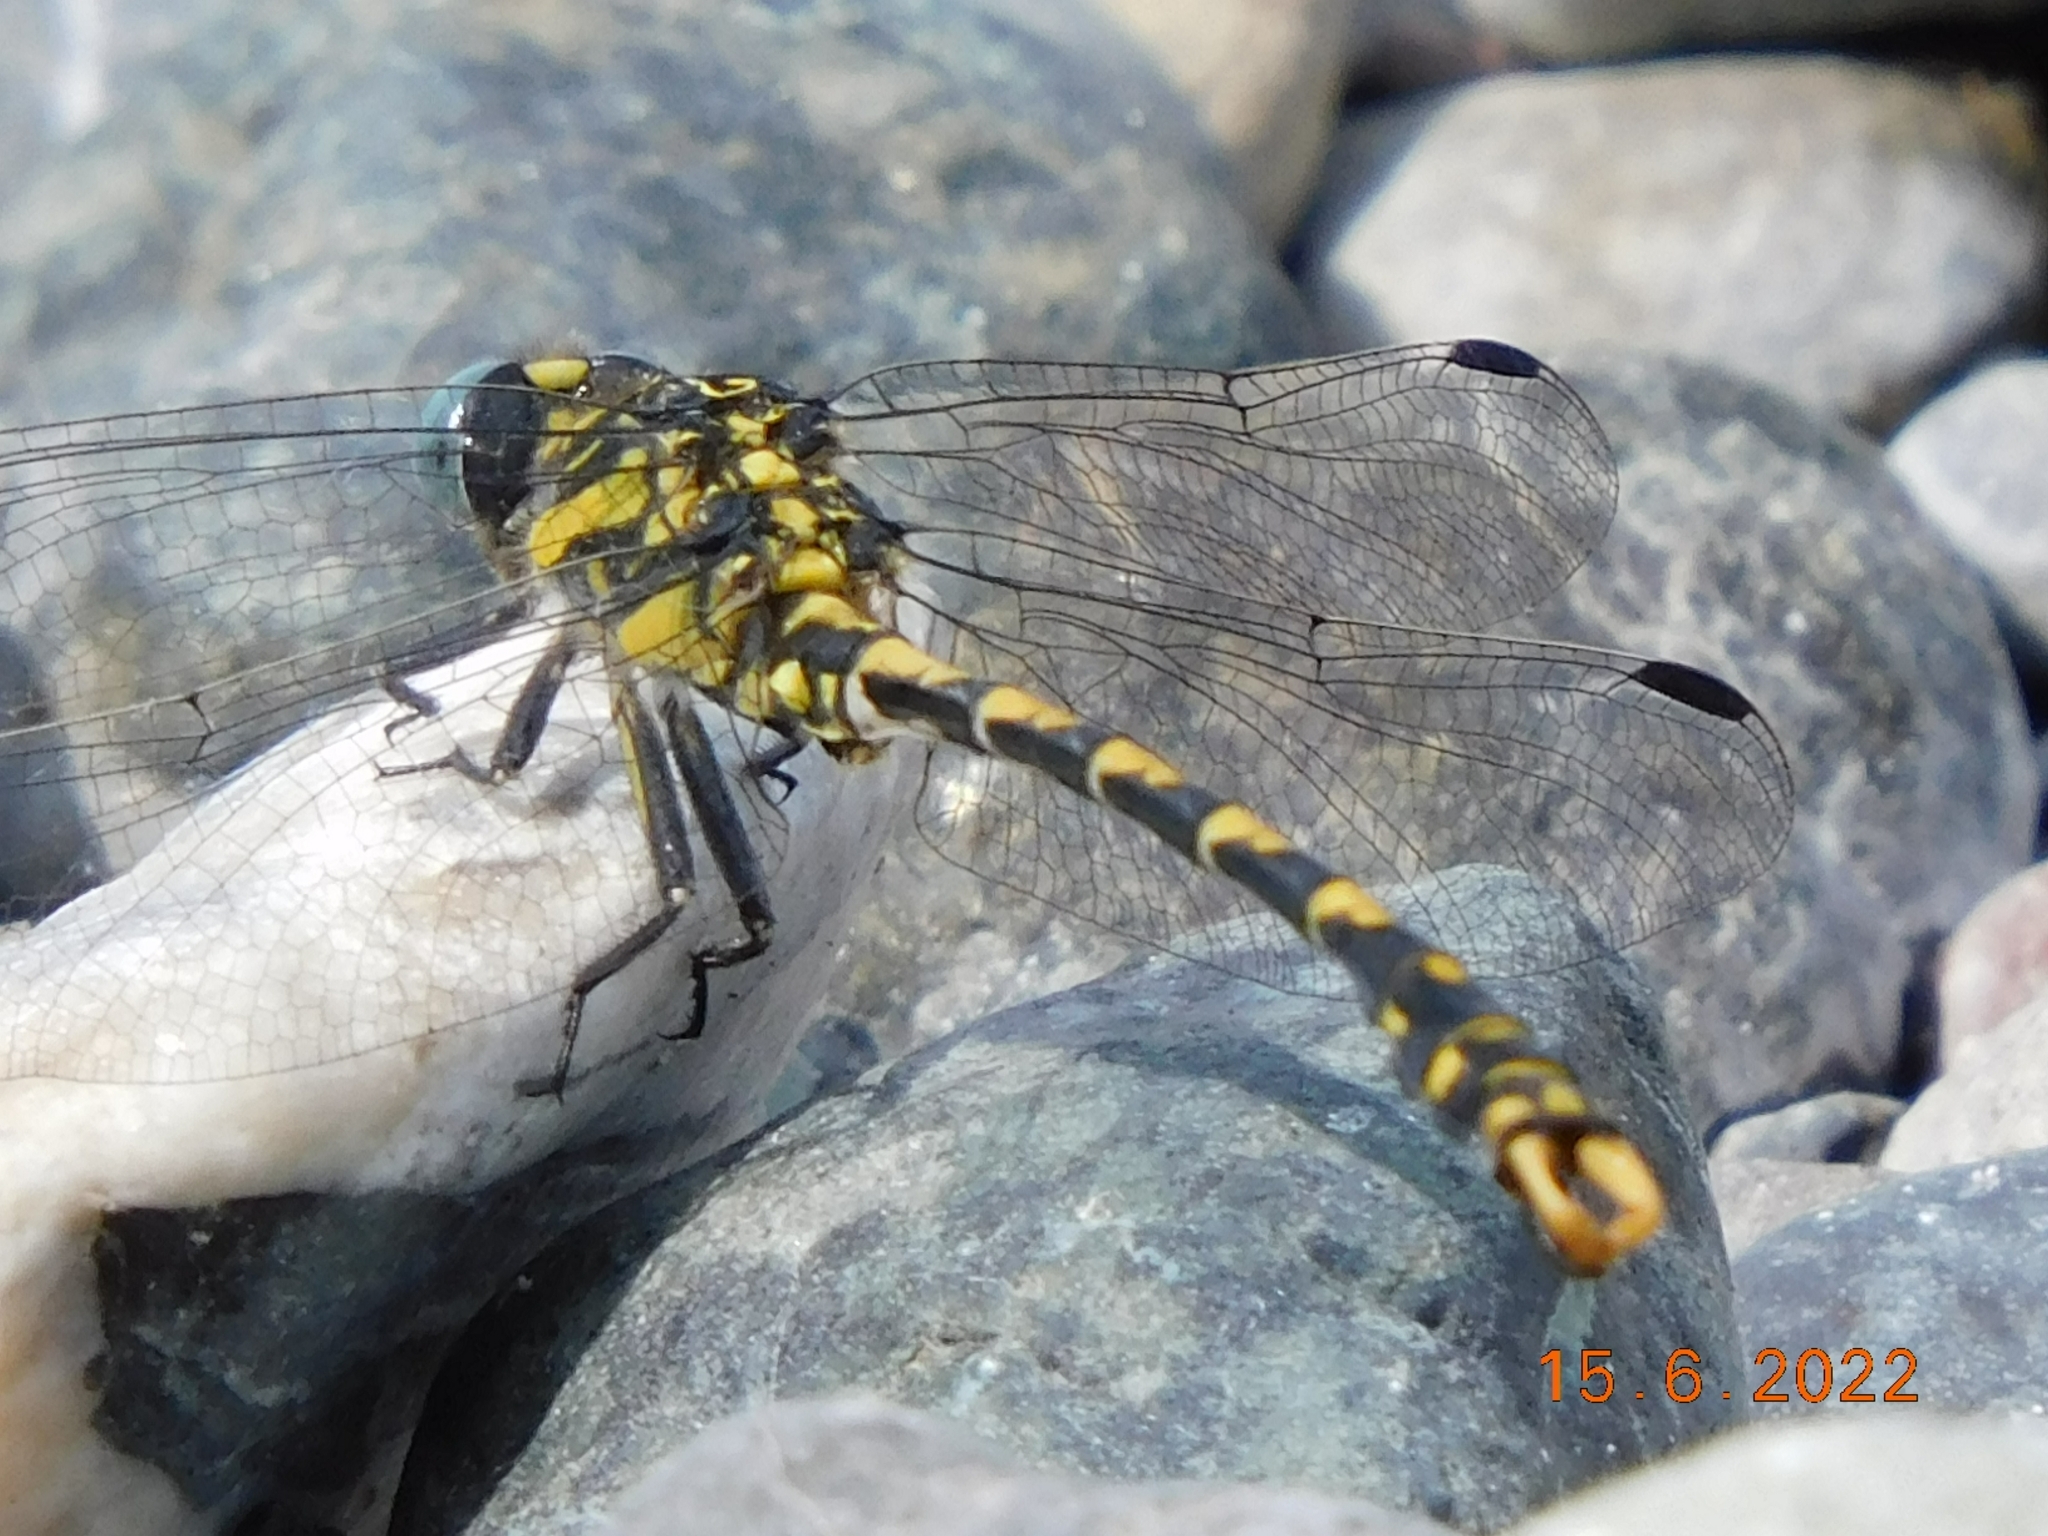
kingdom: Animalia
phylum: Arthropoda
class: Insecta
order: Odonata
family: Gomphidae
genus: Onychogomphus
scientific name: Onychogomphus uncatus
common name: Large pincertail
